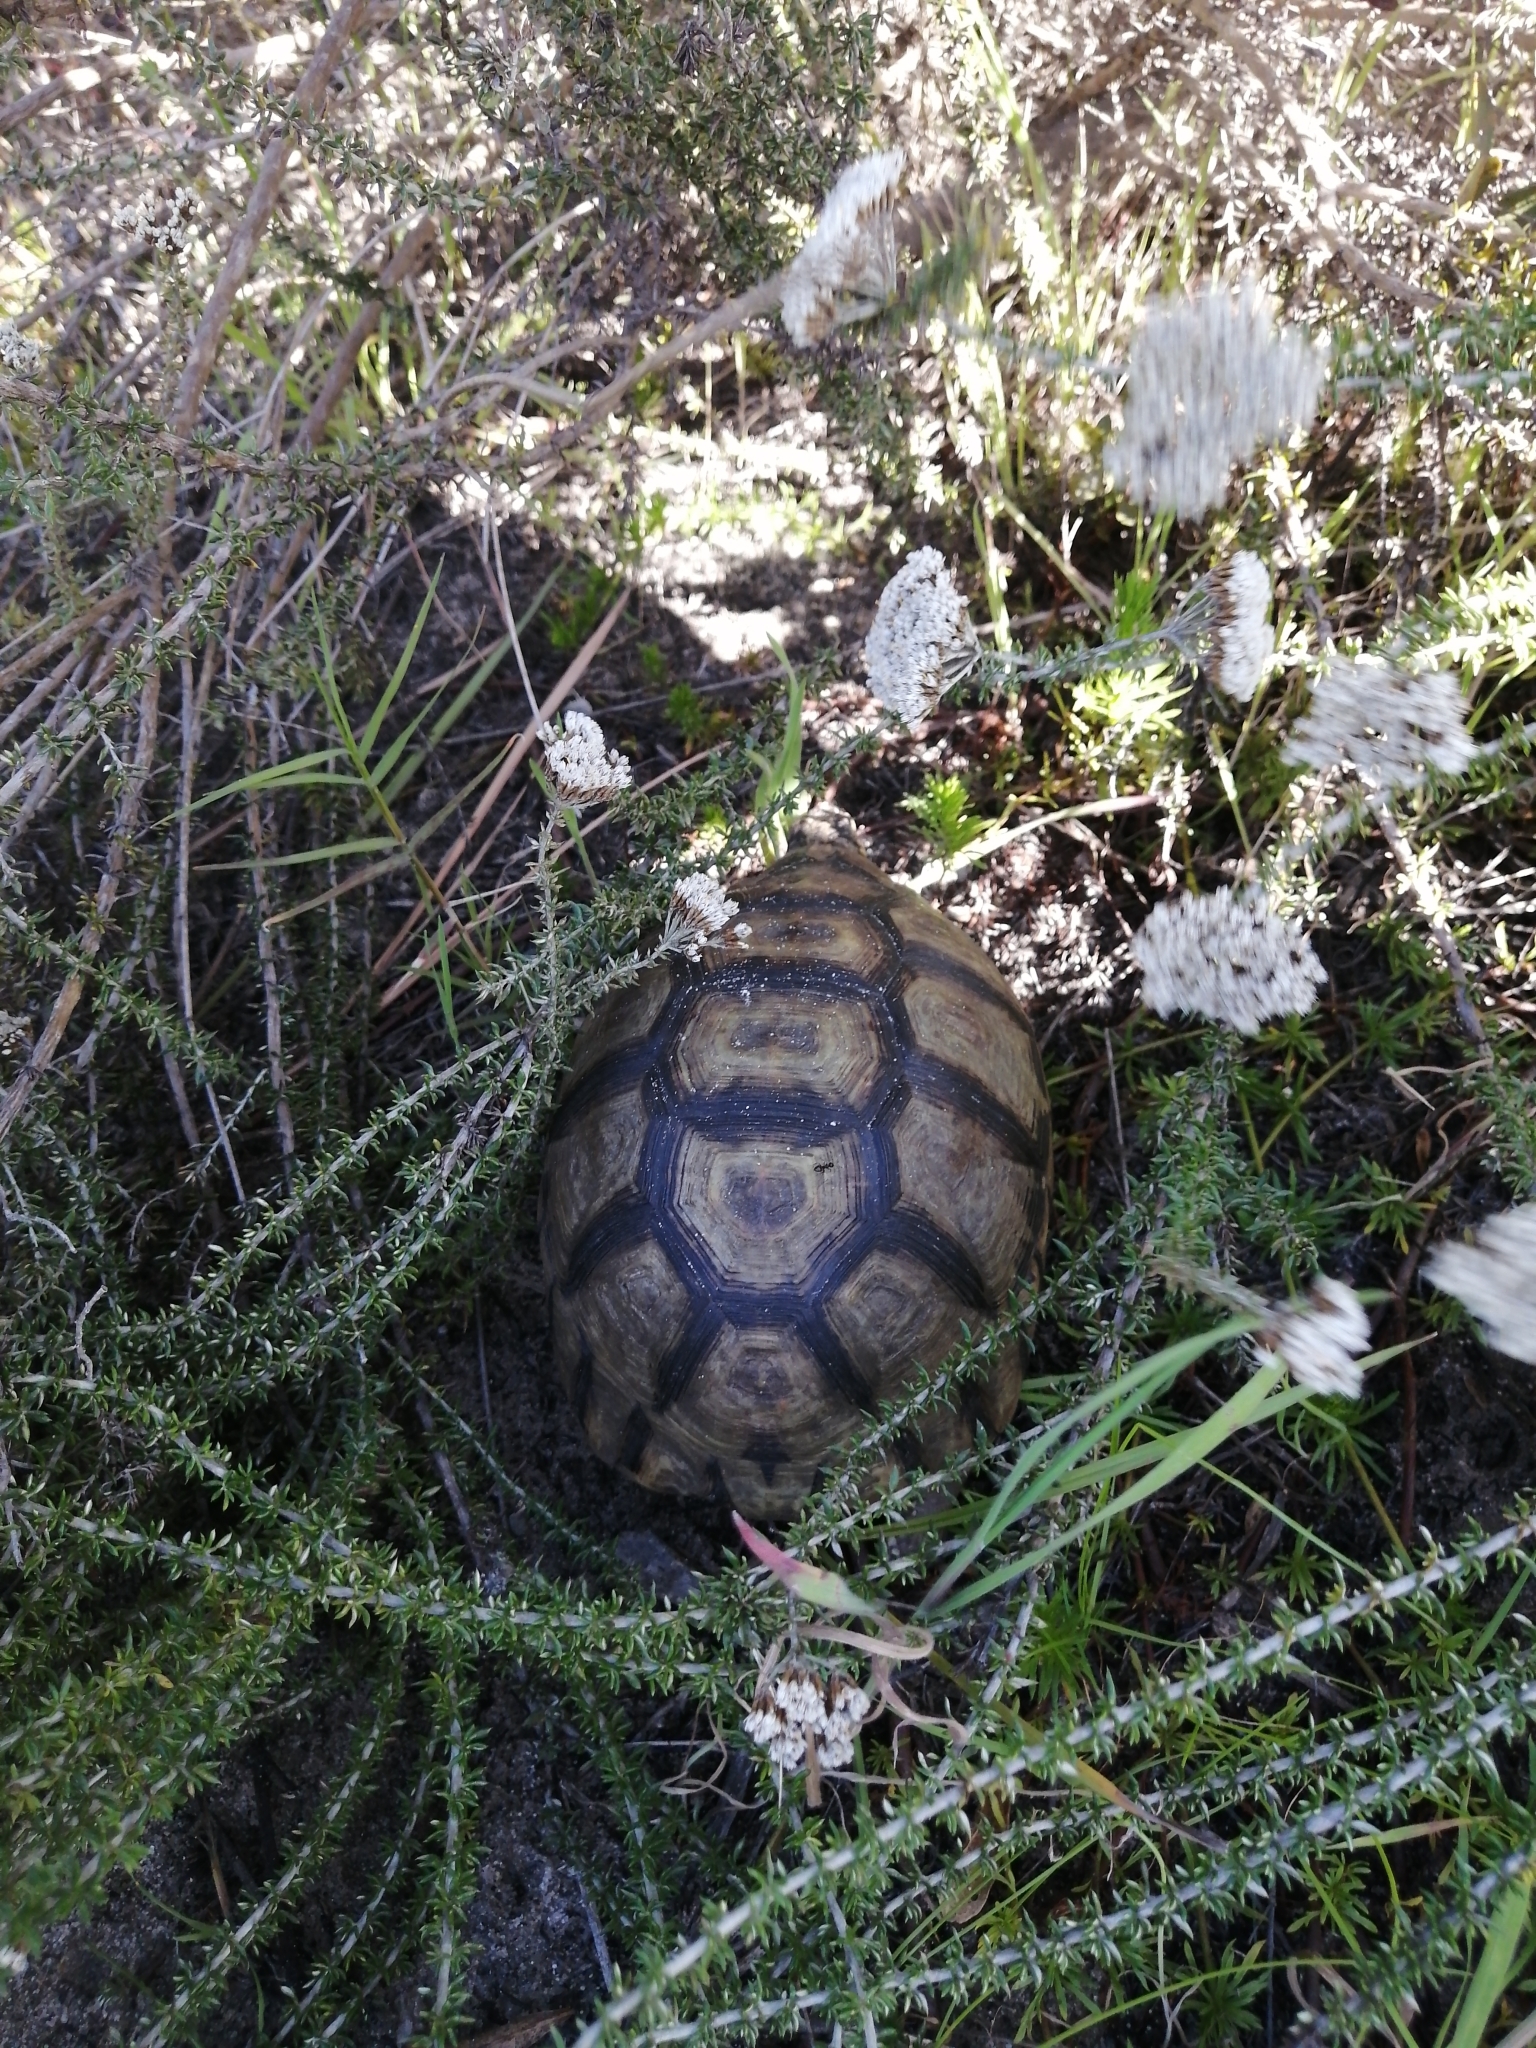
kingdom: Animalia
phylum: Chordata
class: Testudines
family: Testudinidae
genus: Chersina
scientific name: Chersina angulata
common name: South african bowsprit tortoise
